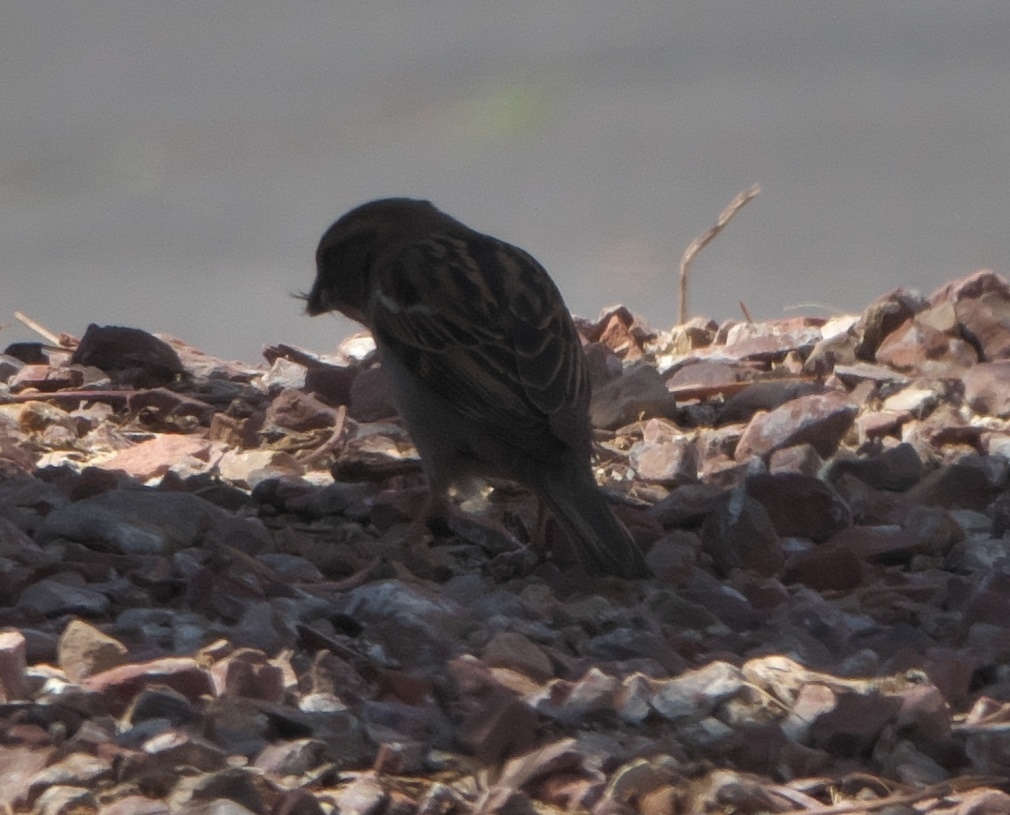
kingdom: Animalia
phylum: Chordata
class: Aves
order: Passeriformes
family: Passeridae
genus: Passer
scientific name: Passer domesticus
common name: House sparrow
